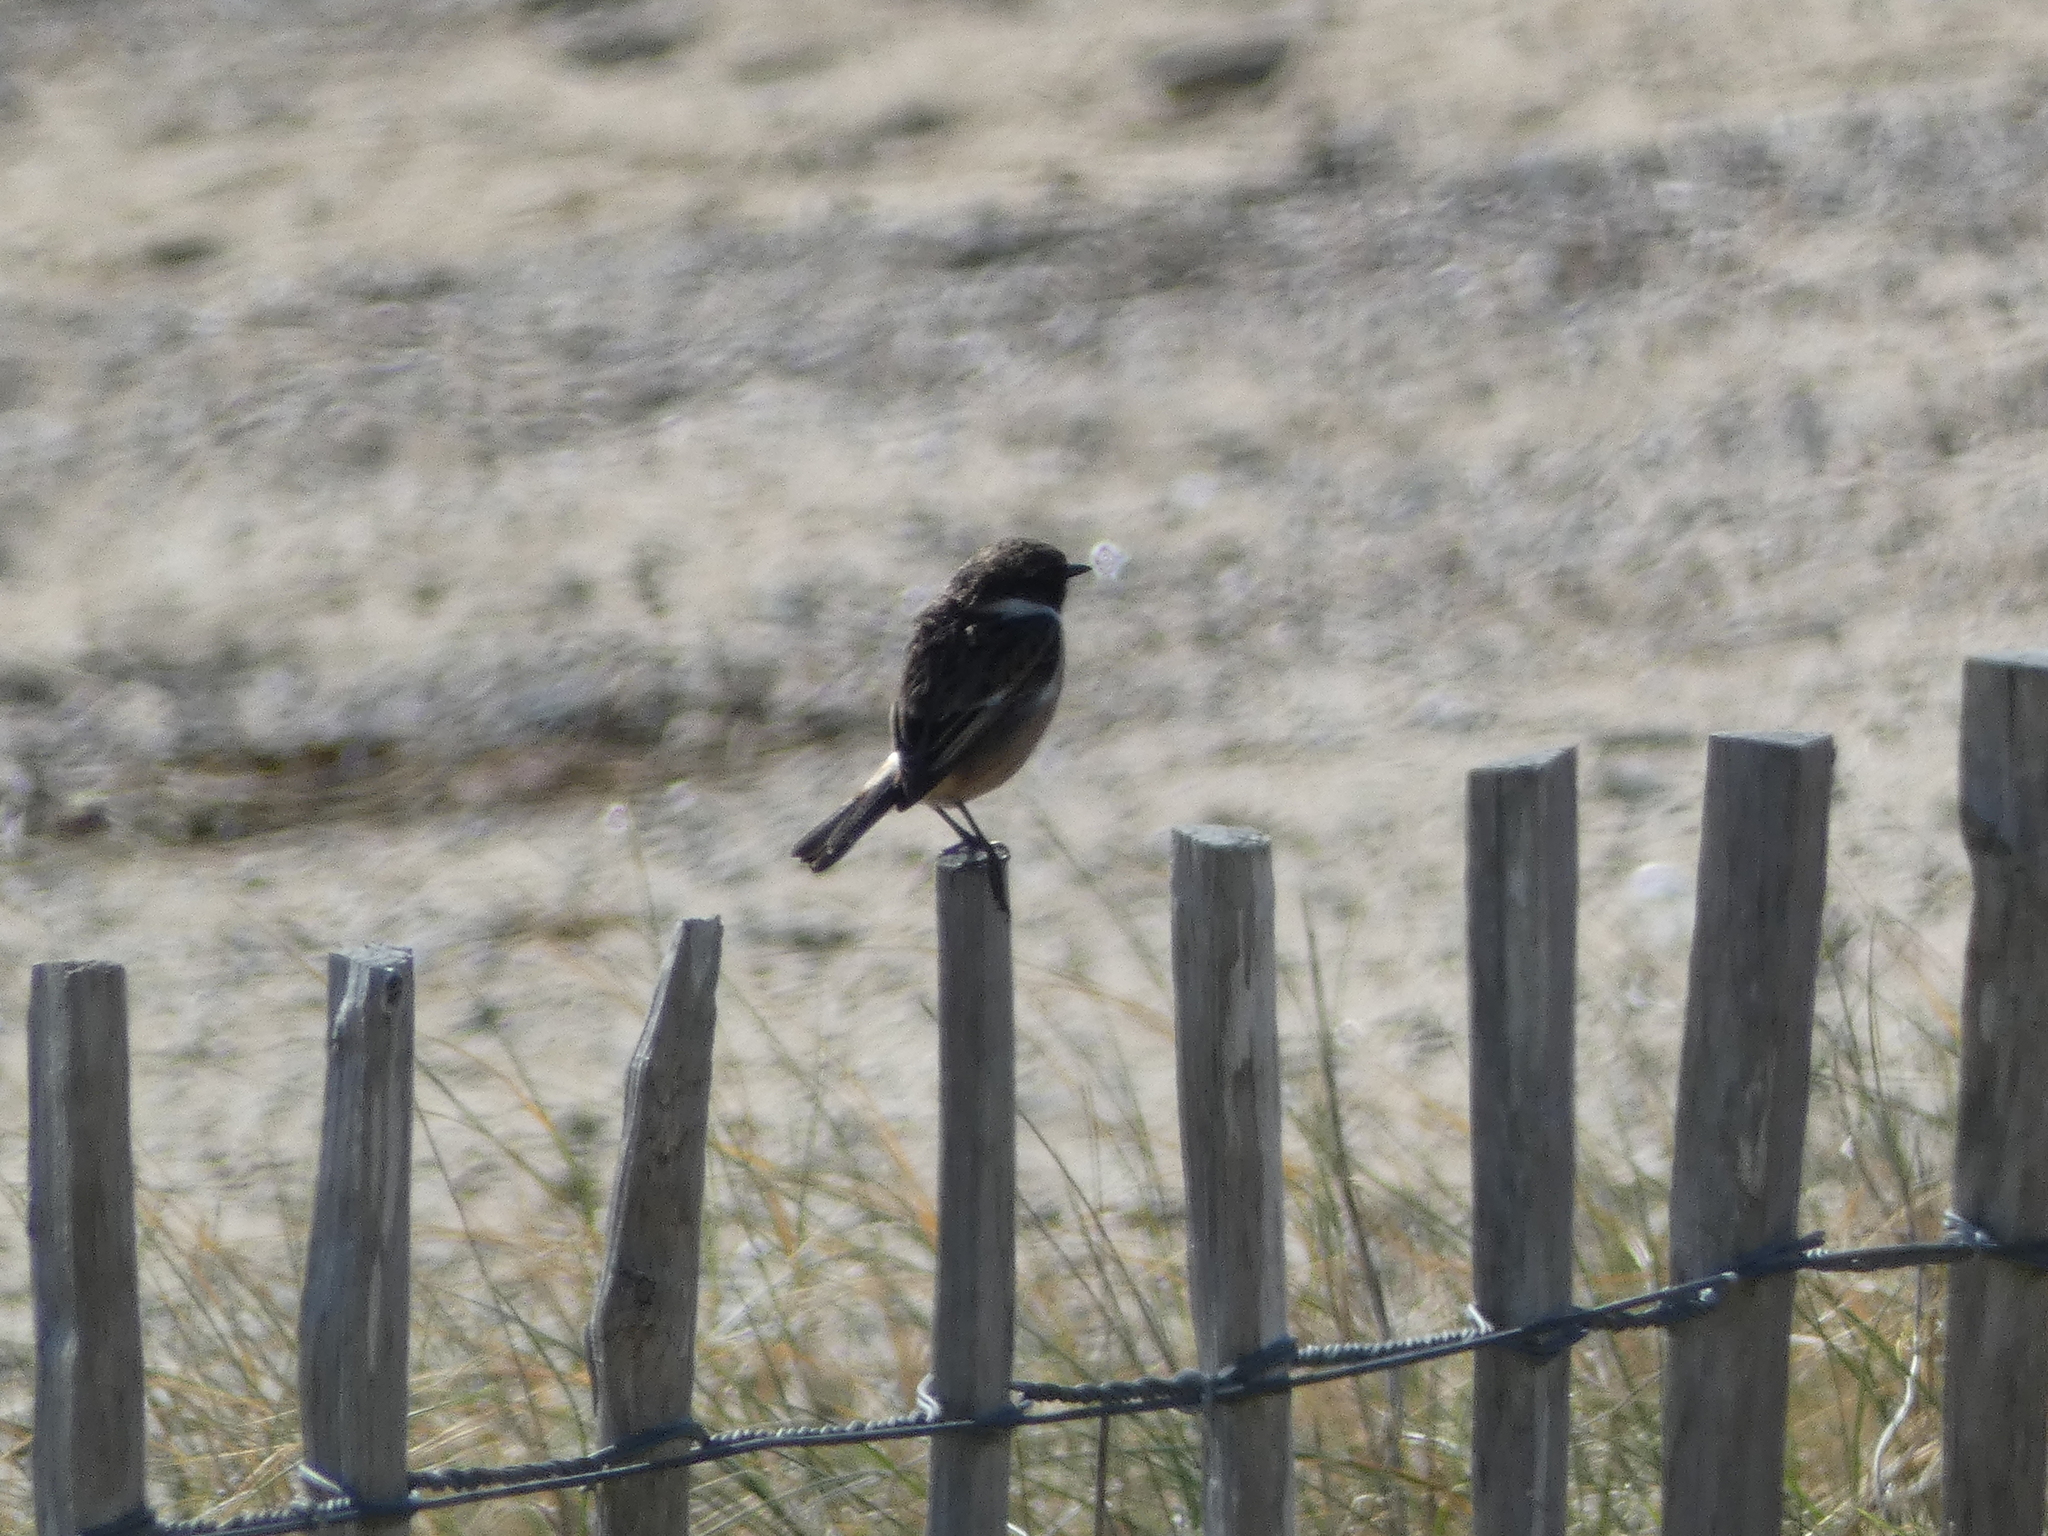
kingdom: Animalia
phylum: Chordata
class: Aves
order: Passeriformes
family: Muscicapidae
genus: Saxicola
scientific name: Saxicola rubicola
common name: European stonechat
